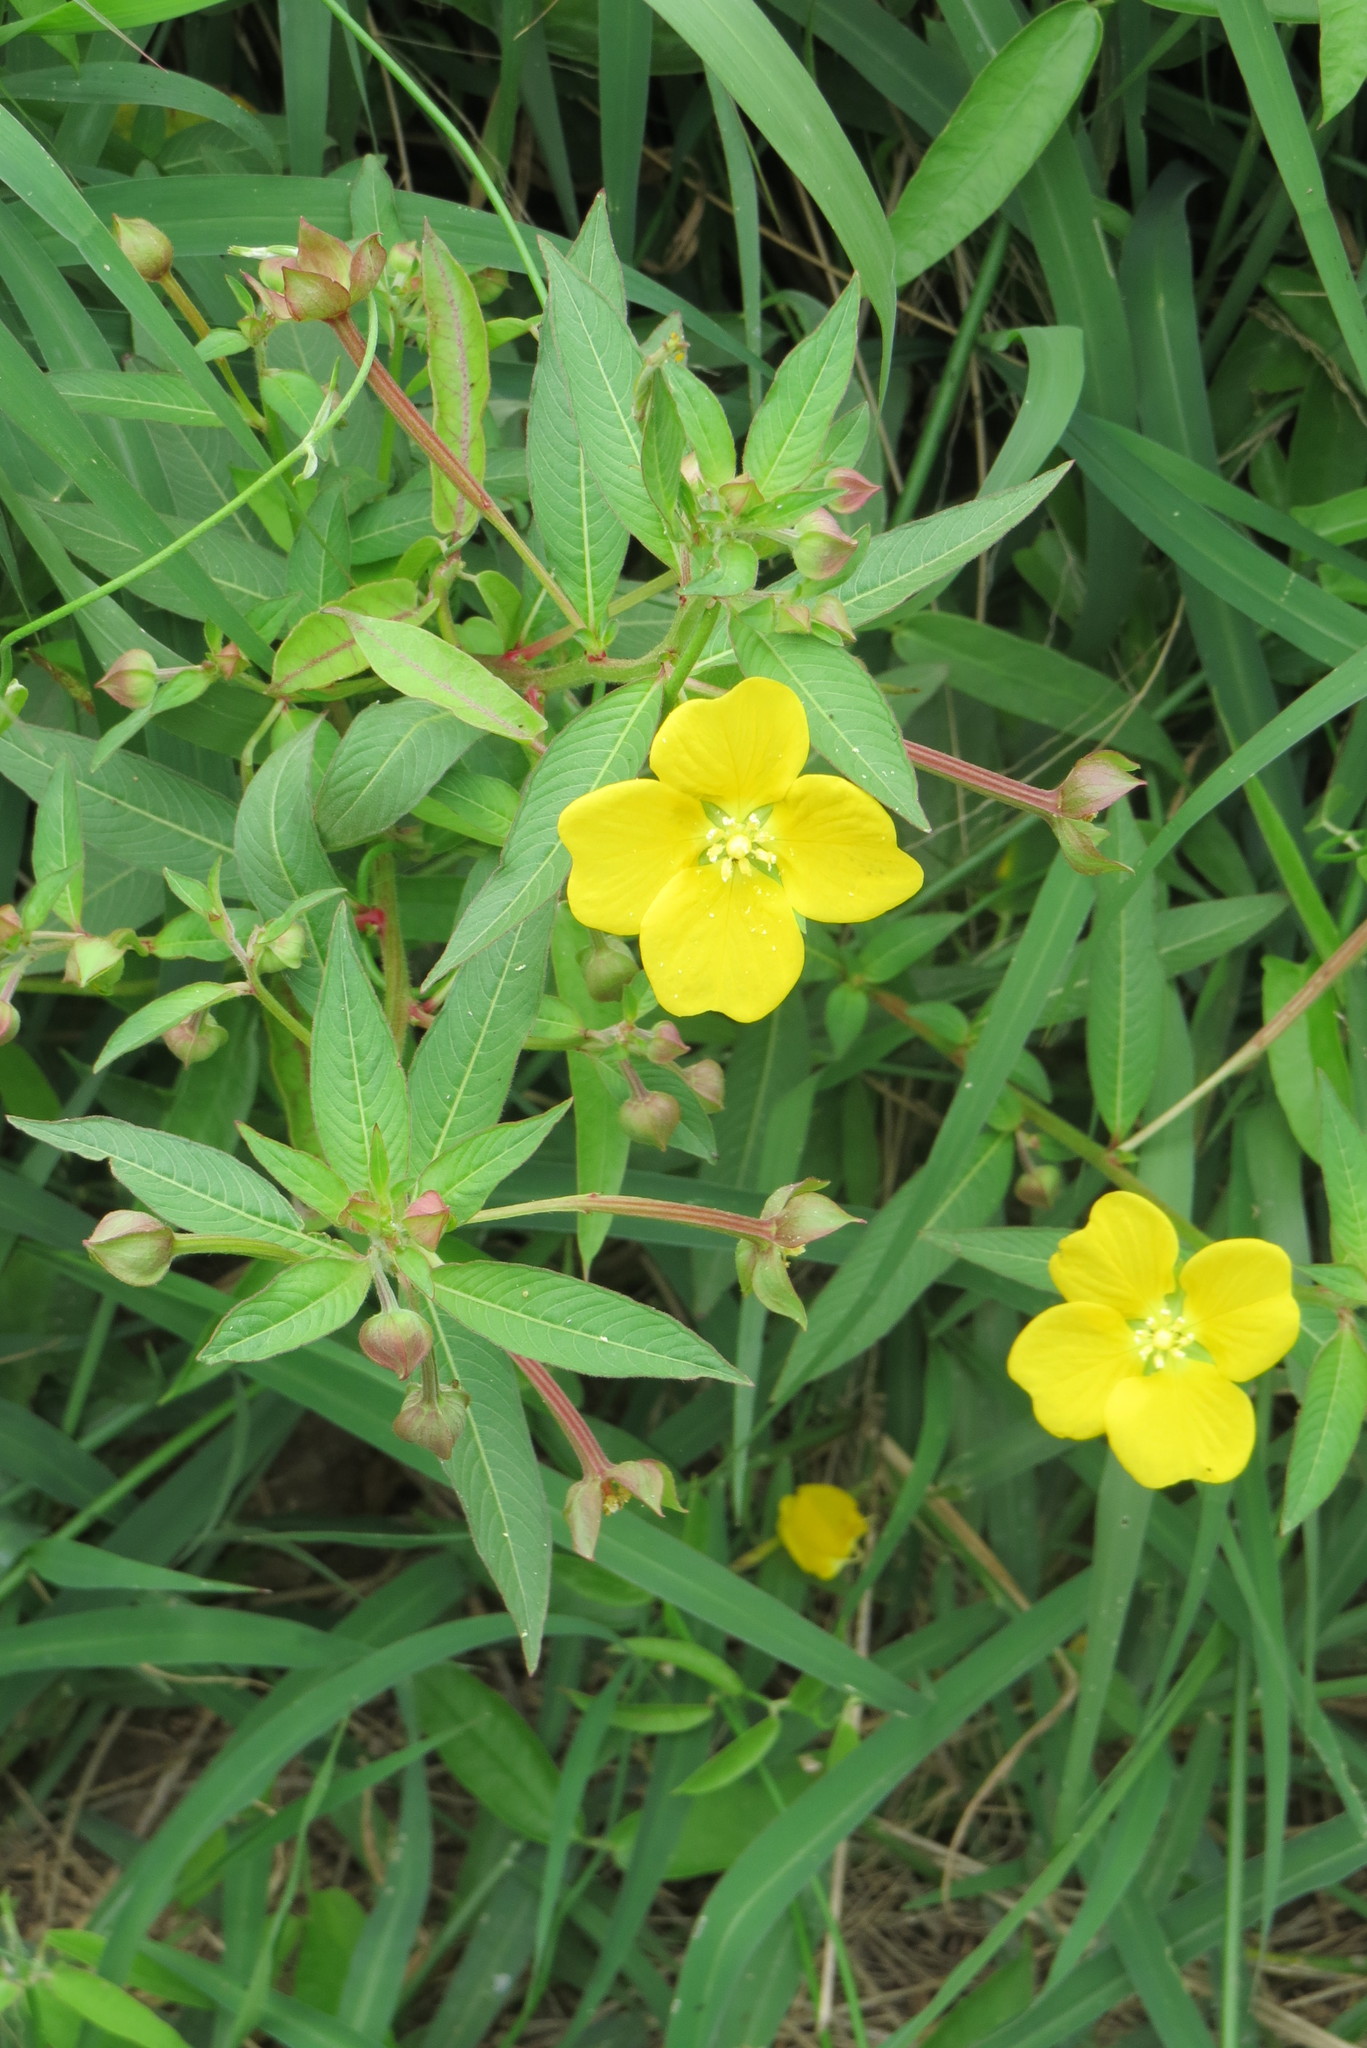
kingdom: Plantae
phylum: Tracheophyta
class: Magnoliopsida
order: Myrtales
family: Onagraceae
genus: Ludwigia
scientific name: Ludwigia octovalvis
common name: Water-primrose
